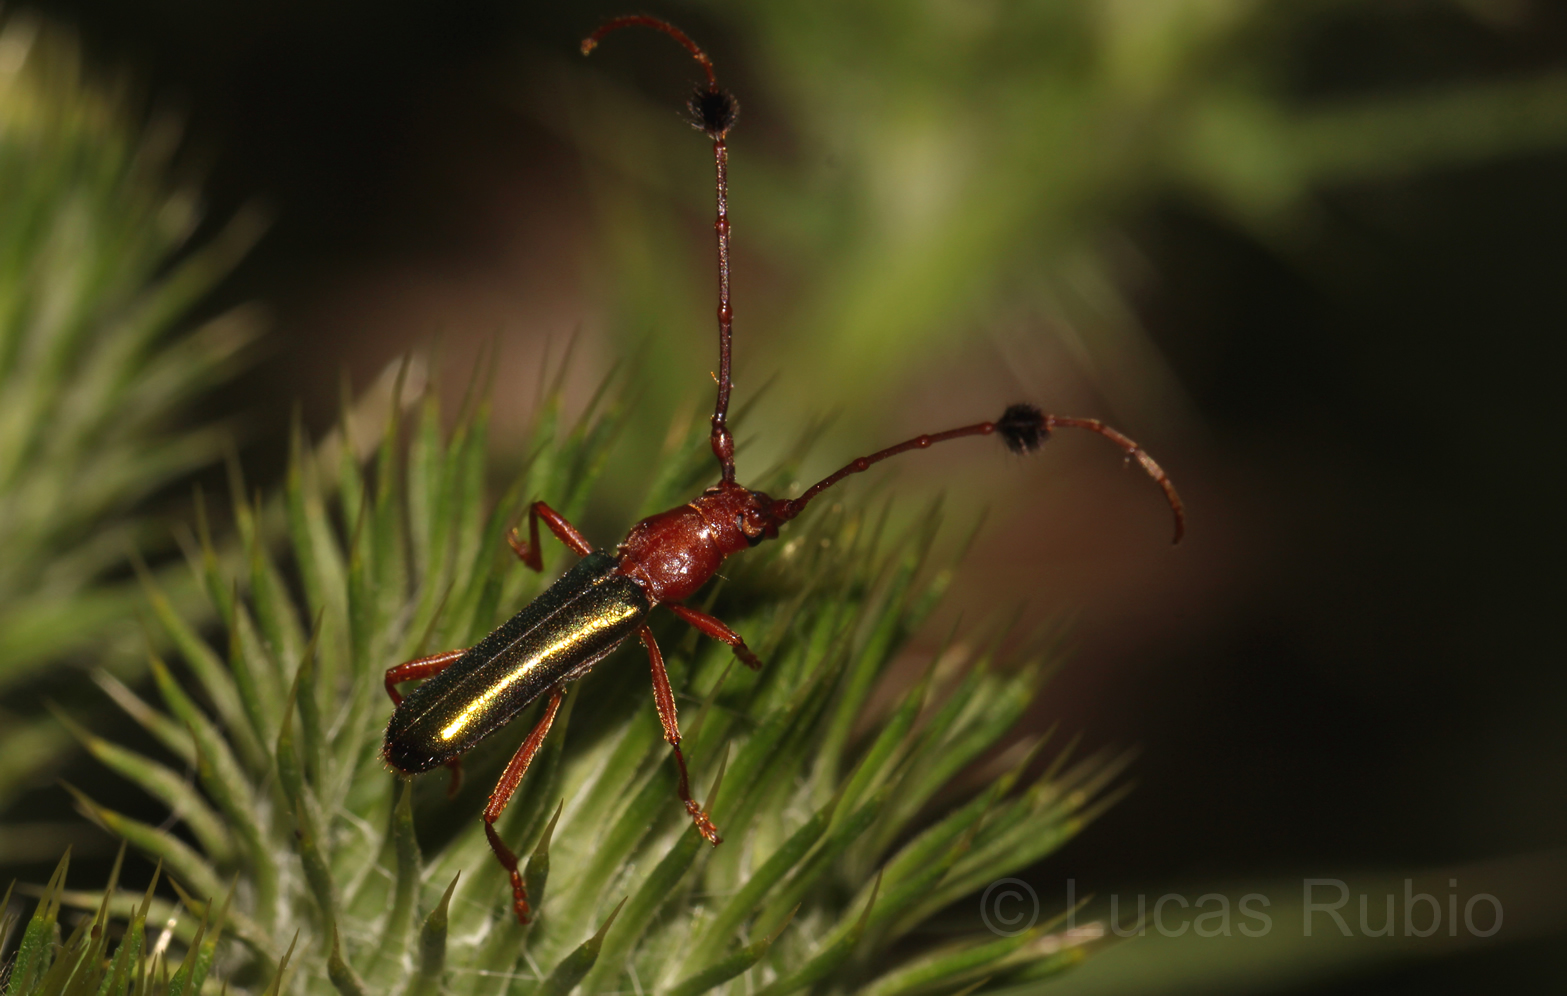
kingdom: Animalia
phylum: Arthropoda
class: Insecta
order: Coleoptera
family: Cerambycidae
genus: Compsocerus
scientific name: Compsocerus violaceus
